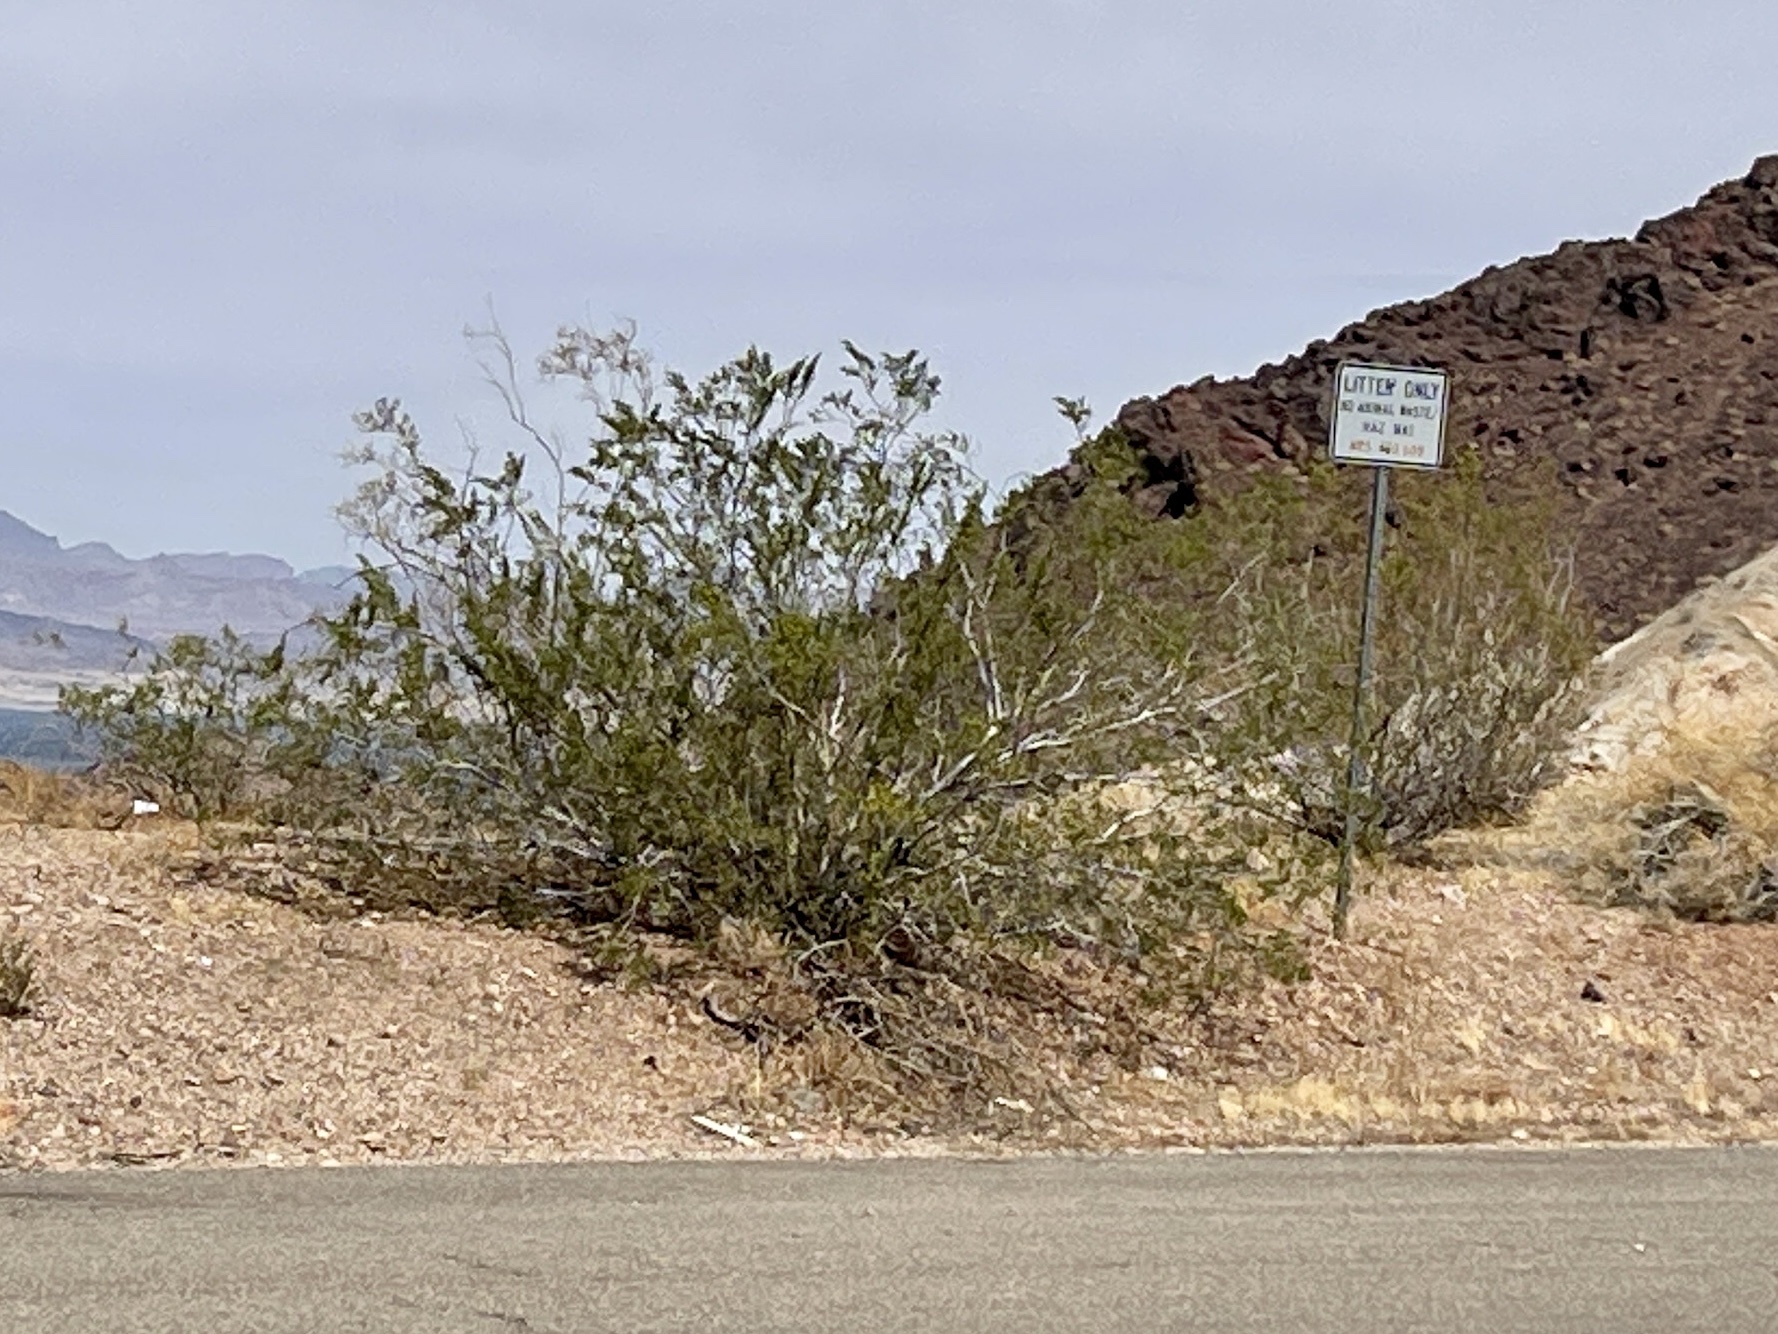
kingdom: Plantae
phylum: Tracheophyta
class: Magnoliopsida
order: Zygophyllales
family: Zygophyllaceae
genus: Larrea
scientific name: Larrea tridentata
